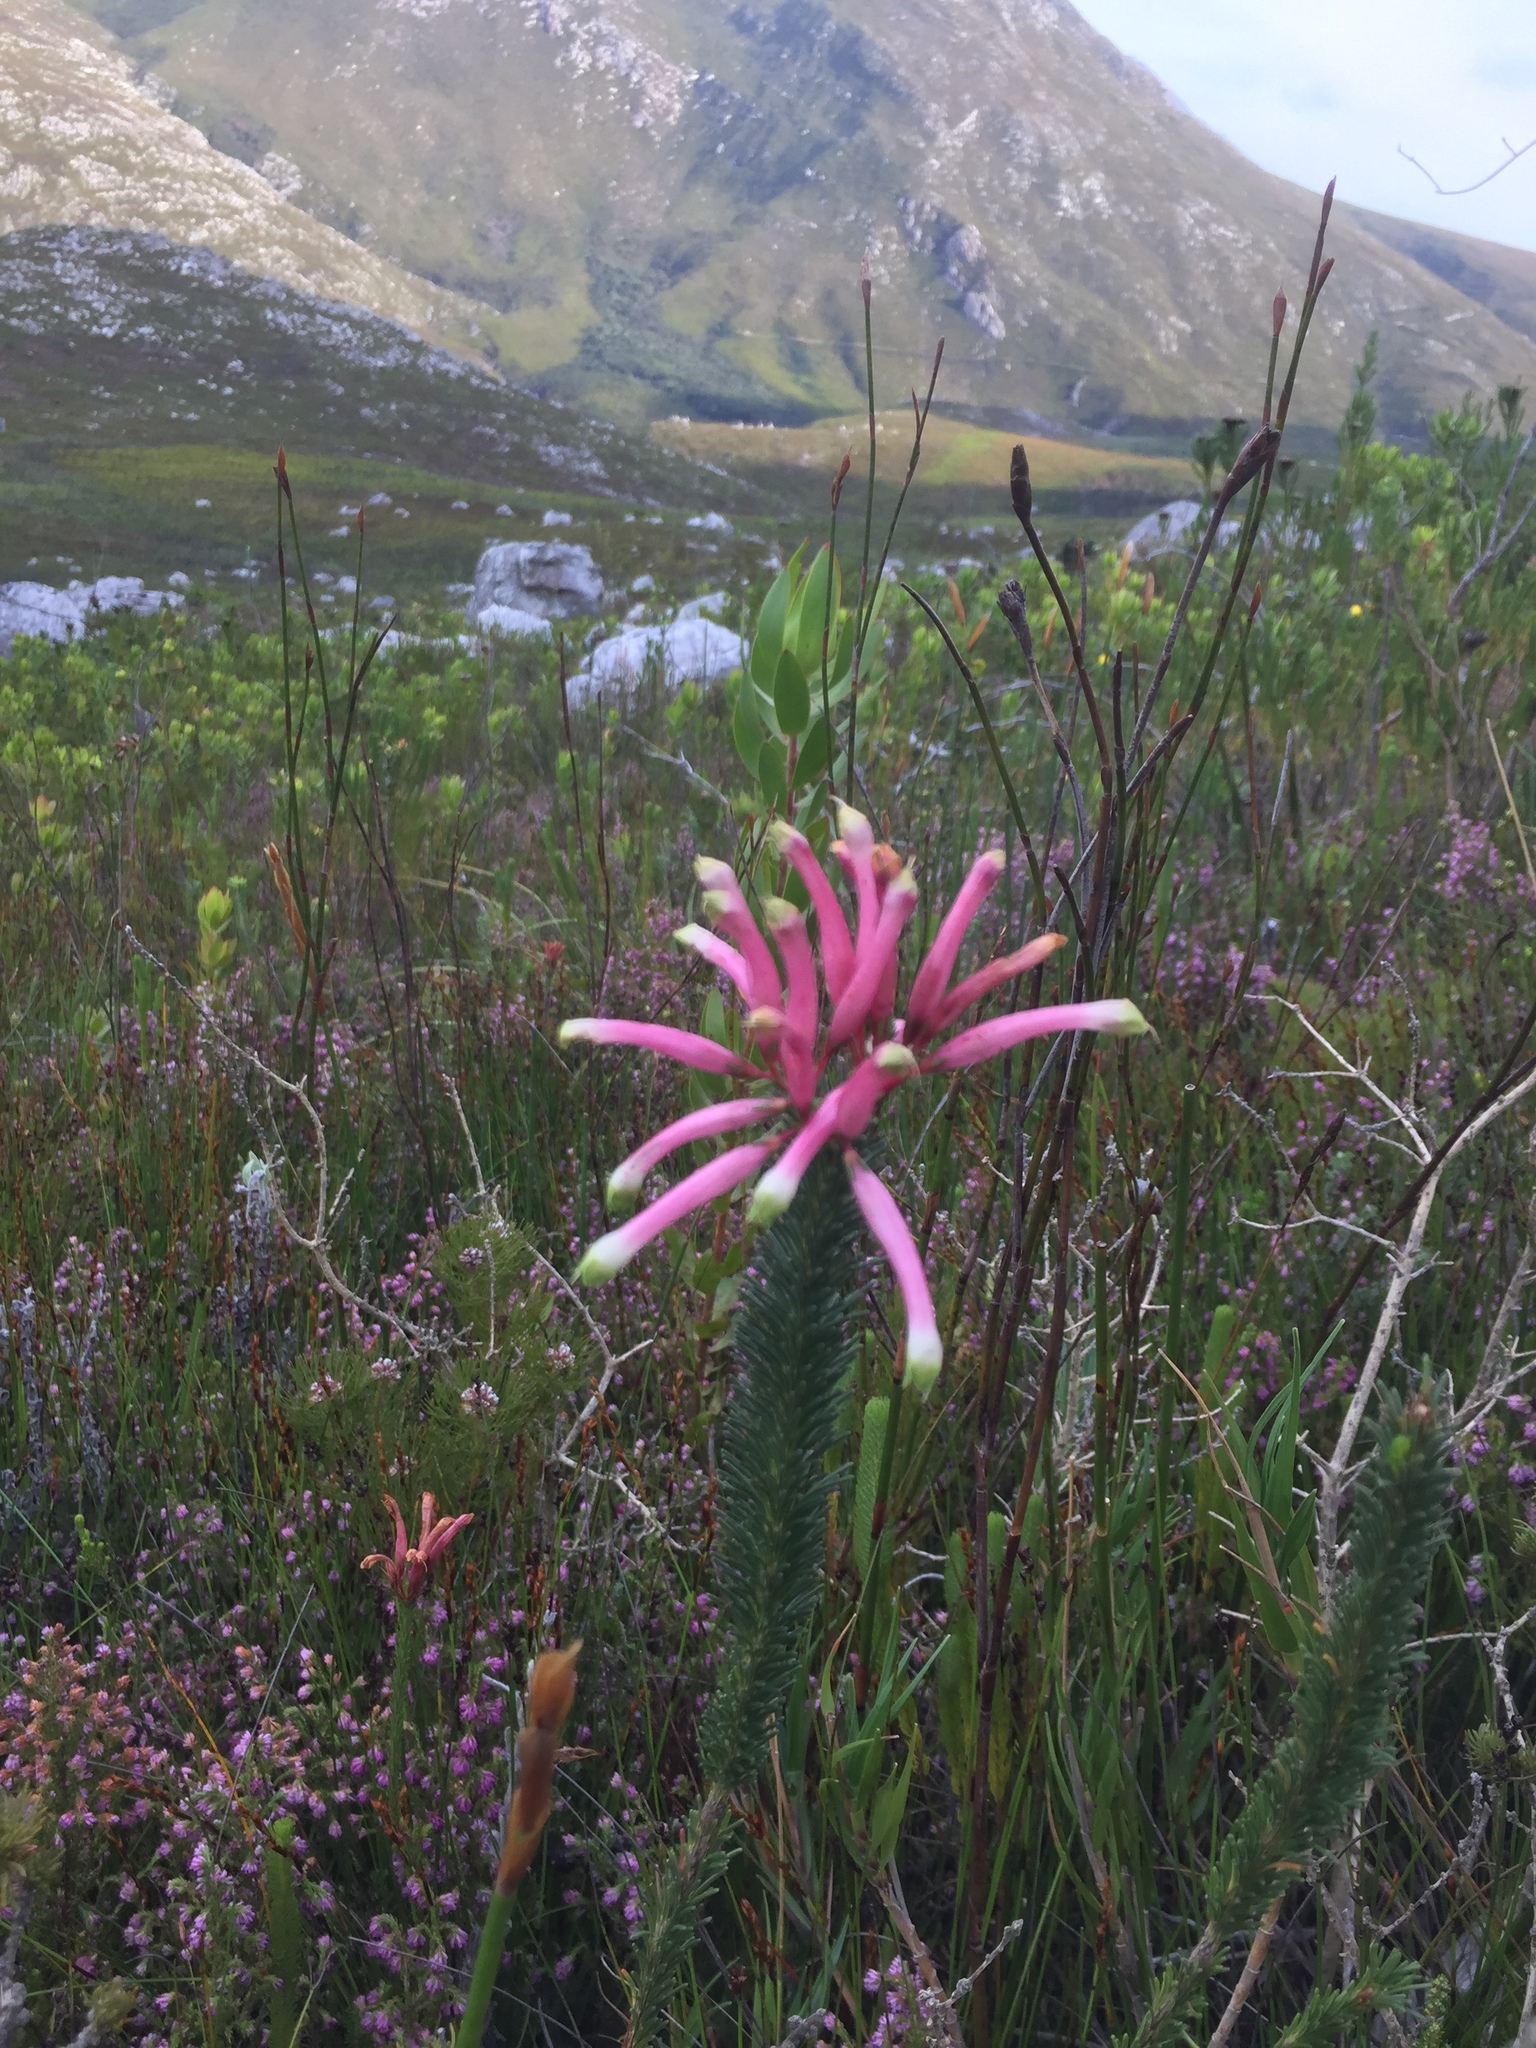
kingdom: Plantae
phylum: Tracheophyta
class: Magnoliopsida
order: Ericales
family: Ericaceae
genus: Erica
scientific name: Erica fascicularis
